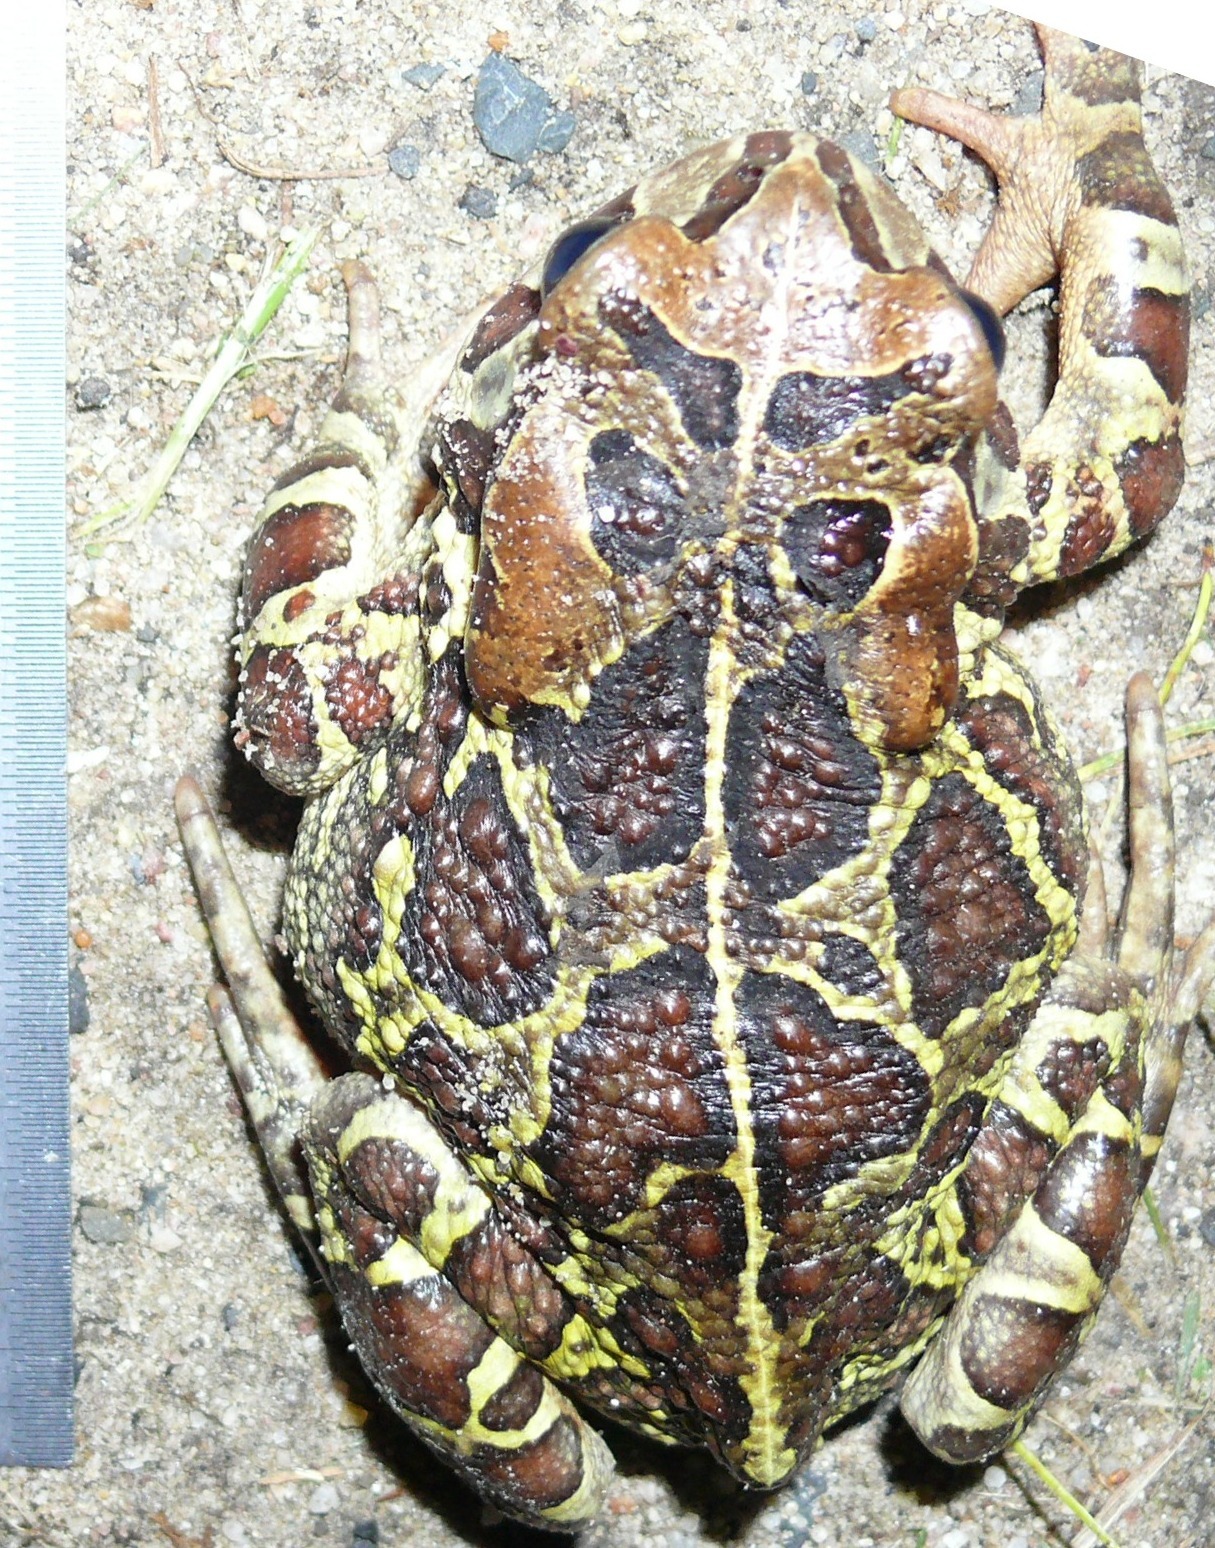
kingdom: Animalia
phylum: Chordata
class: Amphibia
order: Anura
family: Bufonidae
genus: Sclerophrys
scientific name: Sclerophrys pantherina
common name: Panther toad
